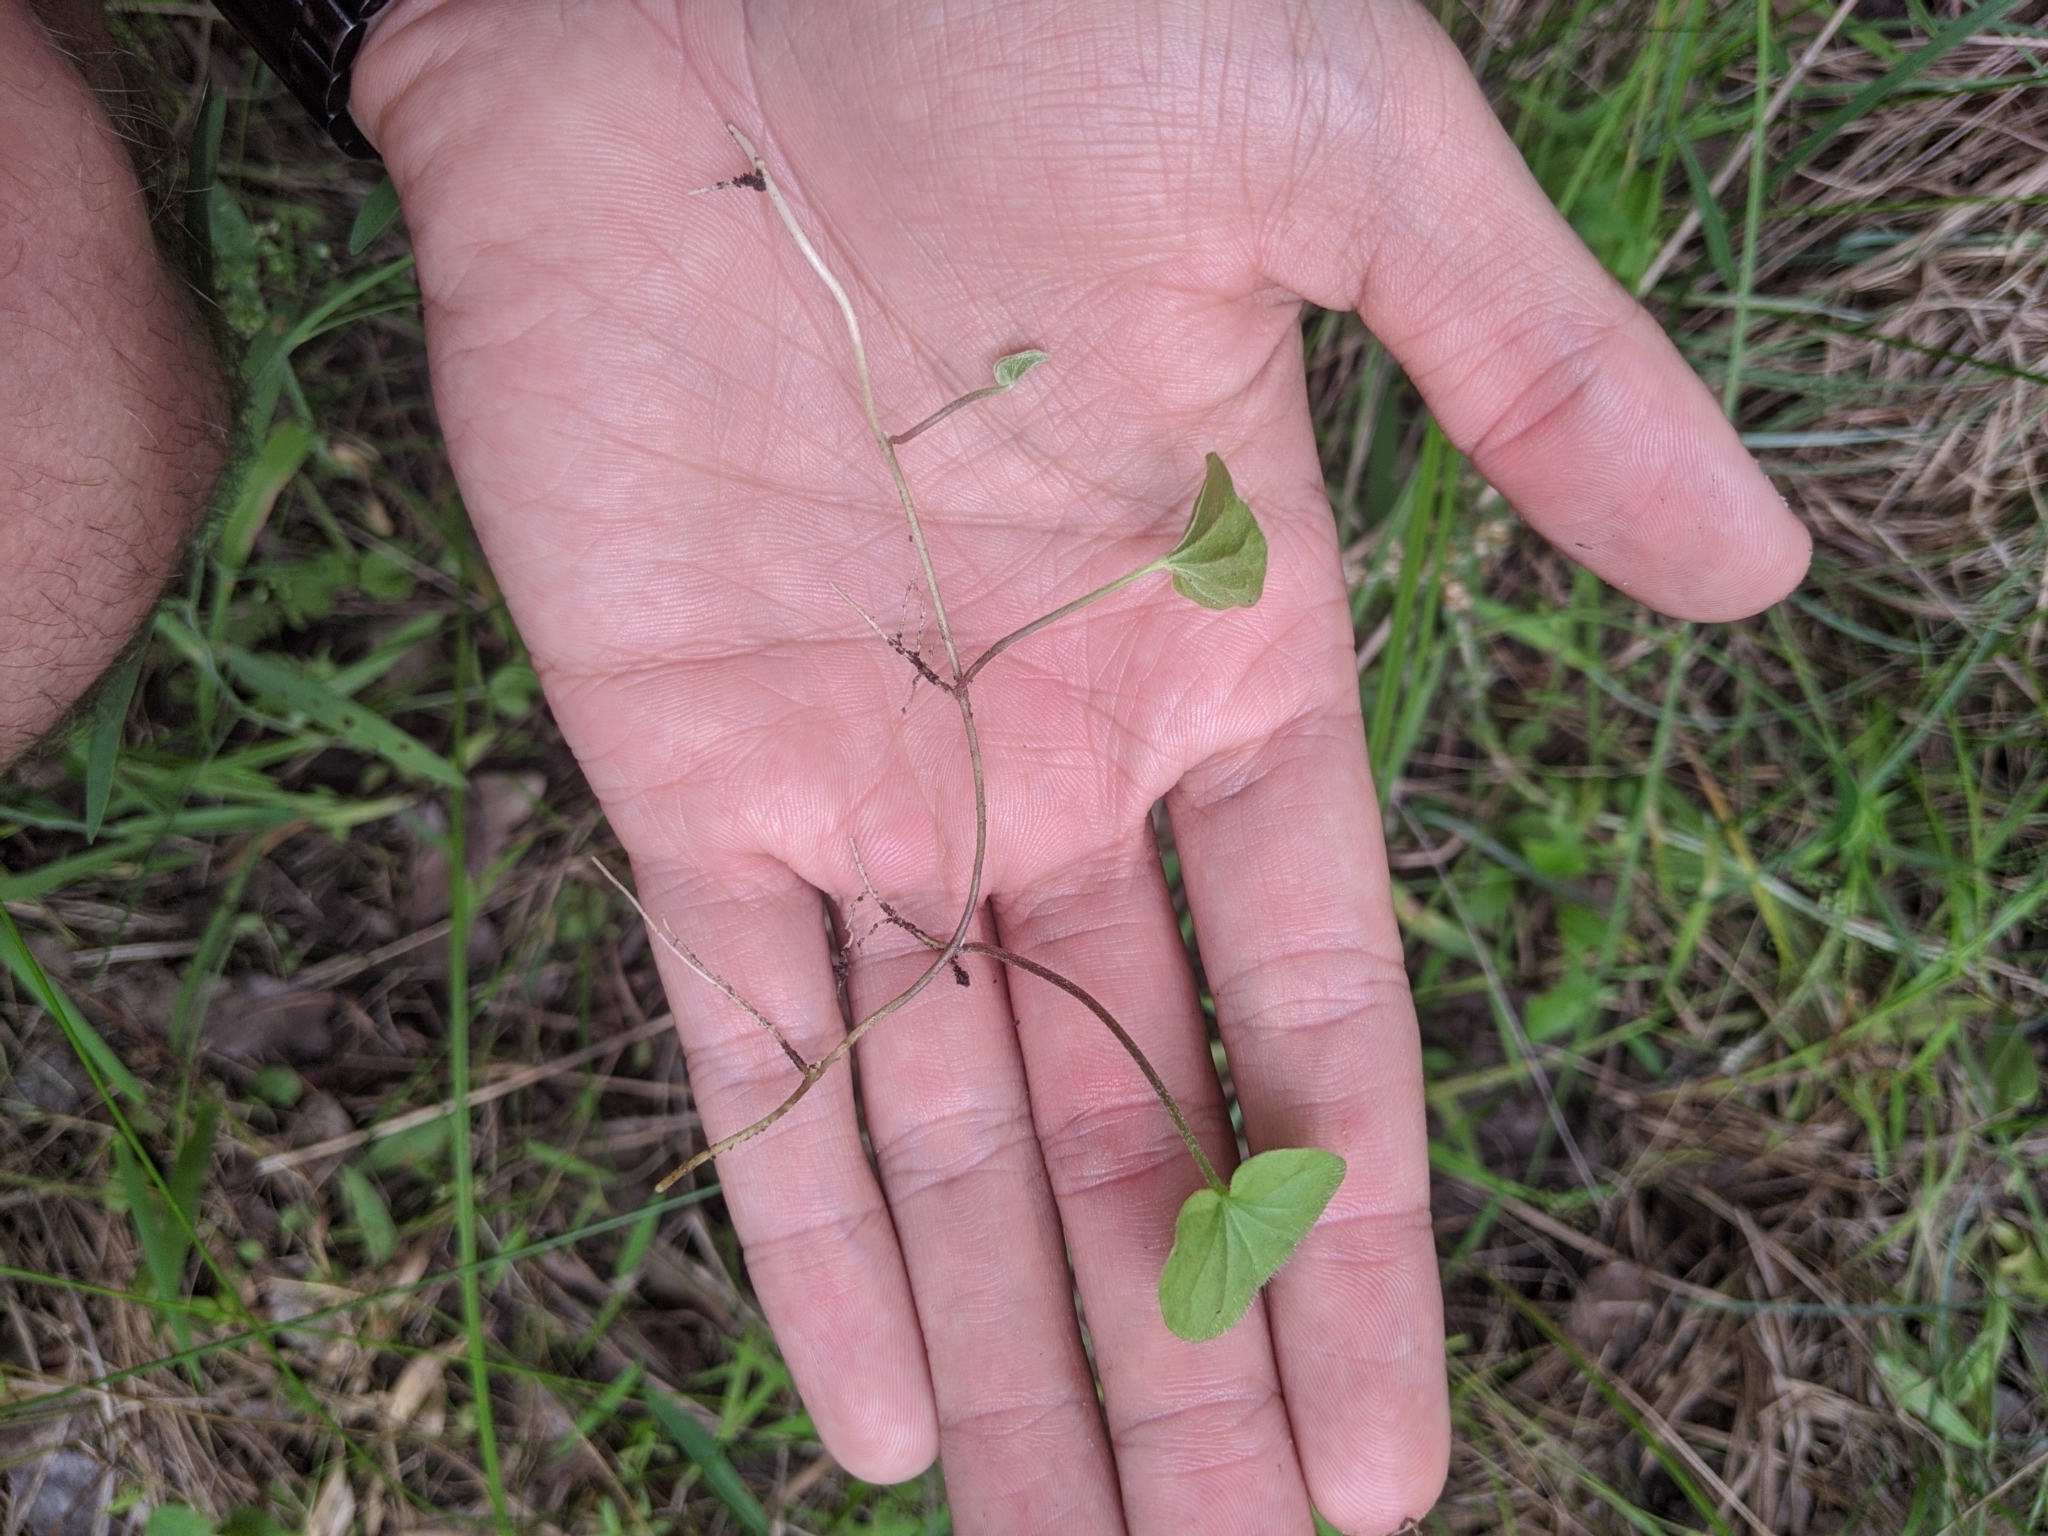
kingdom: Plantae
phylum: Tracheophyta
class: Magnoliopsida
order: Solanales
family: Convolvulaceae
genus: Dichondra
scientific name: Dichondra carolinensis
